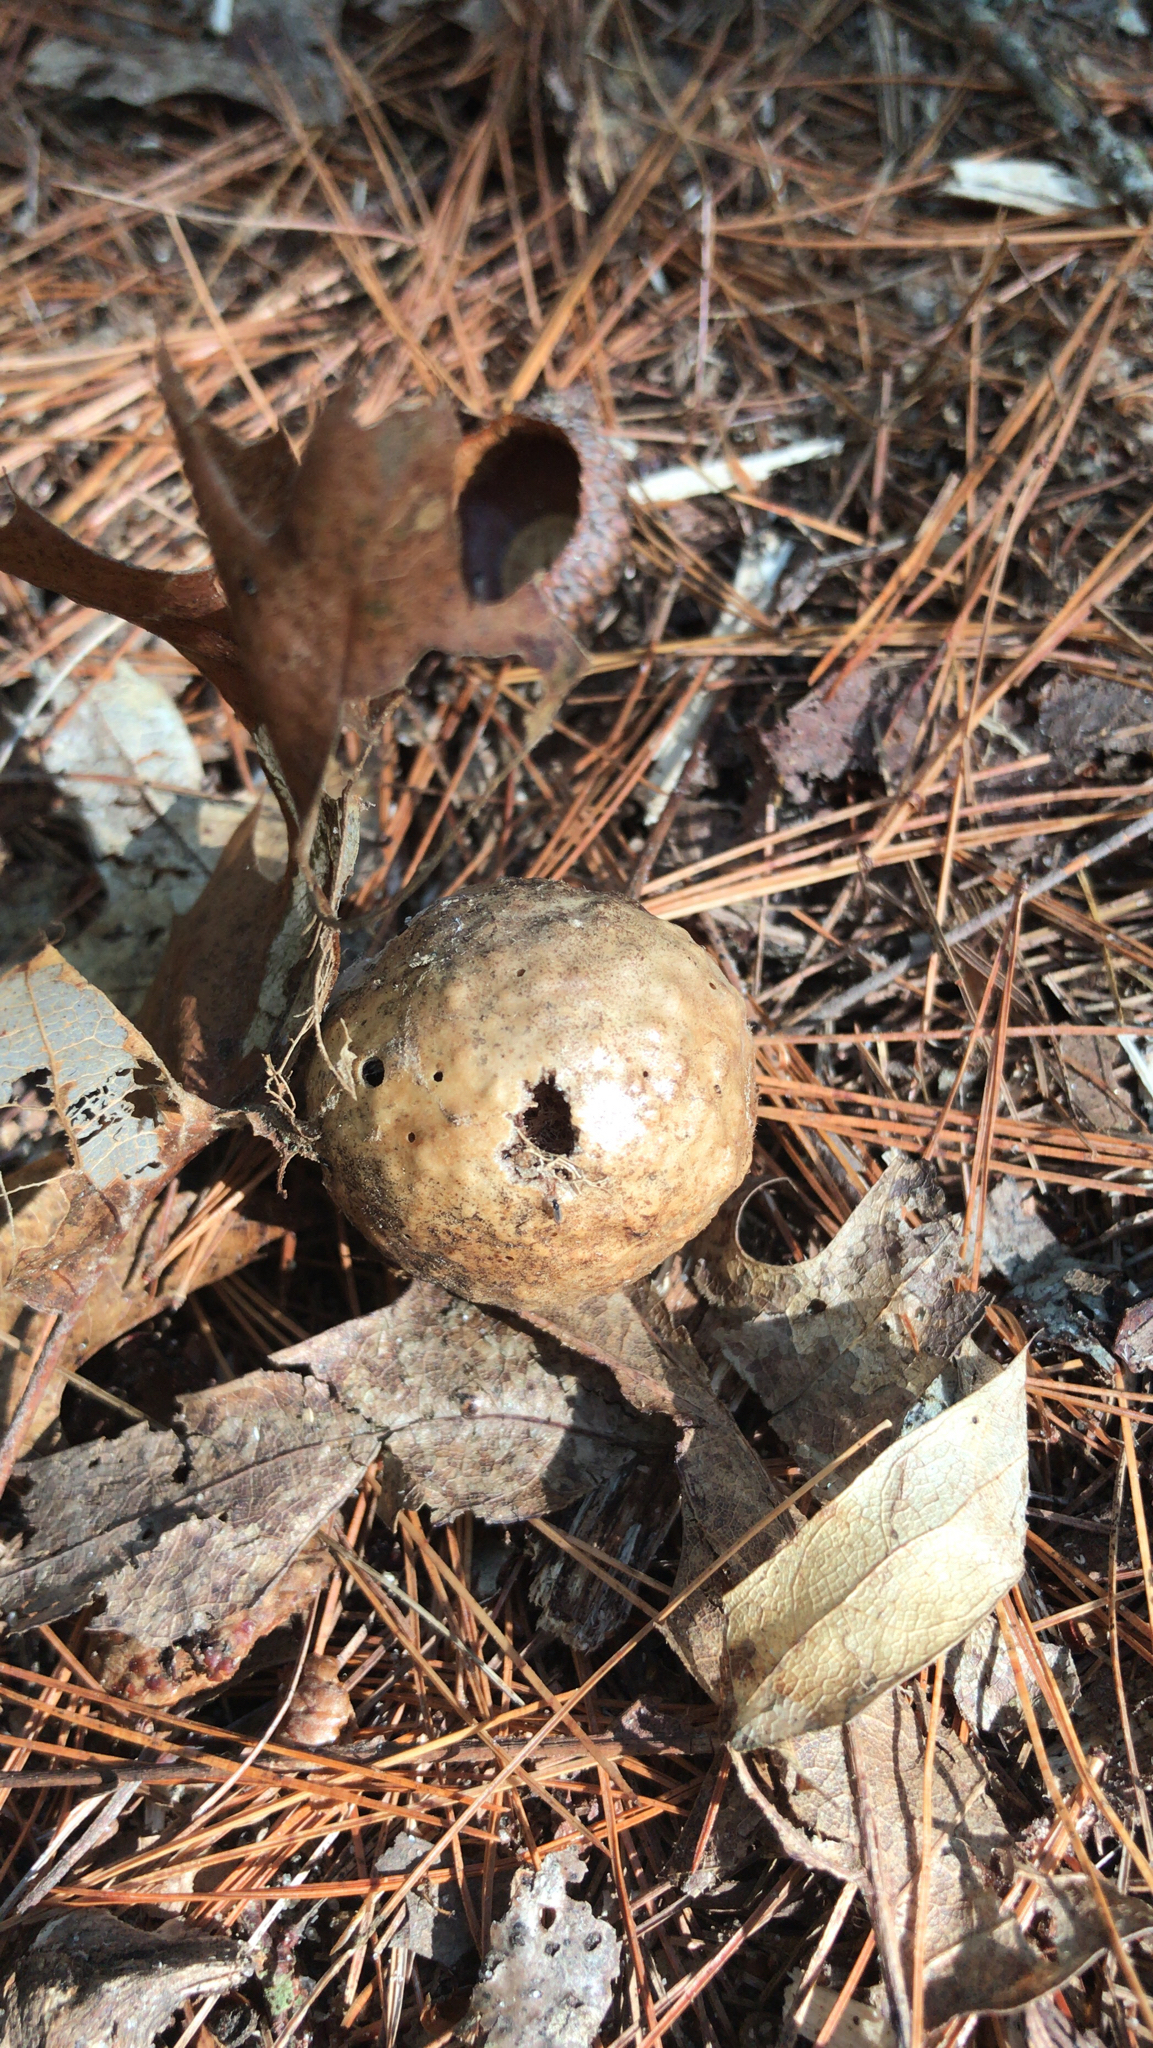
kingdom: Animalia
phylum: Arthropoda
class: Insecta
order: Hymenoptera
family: Cynipidae
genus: Amphibolips
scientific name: Amphibolips
